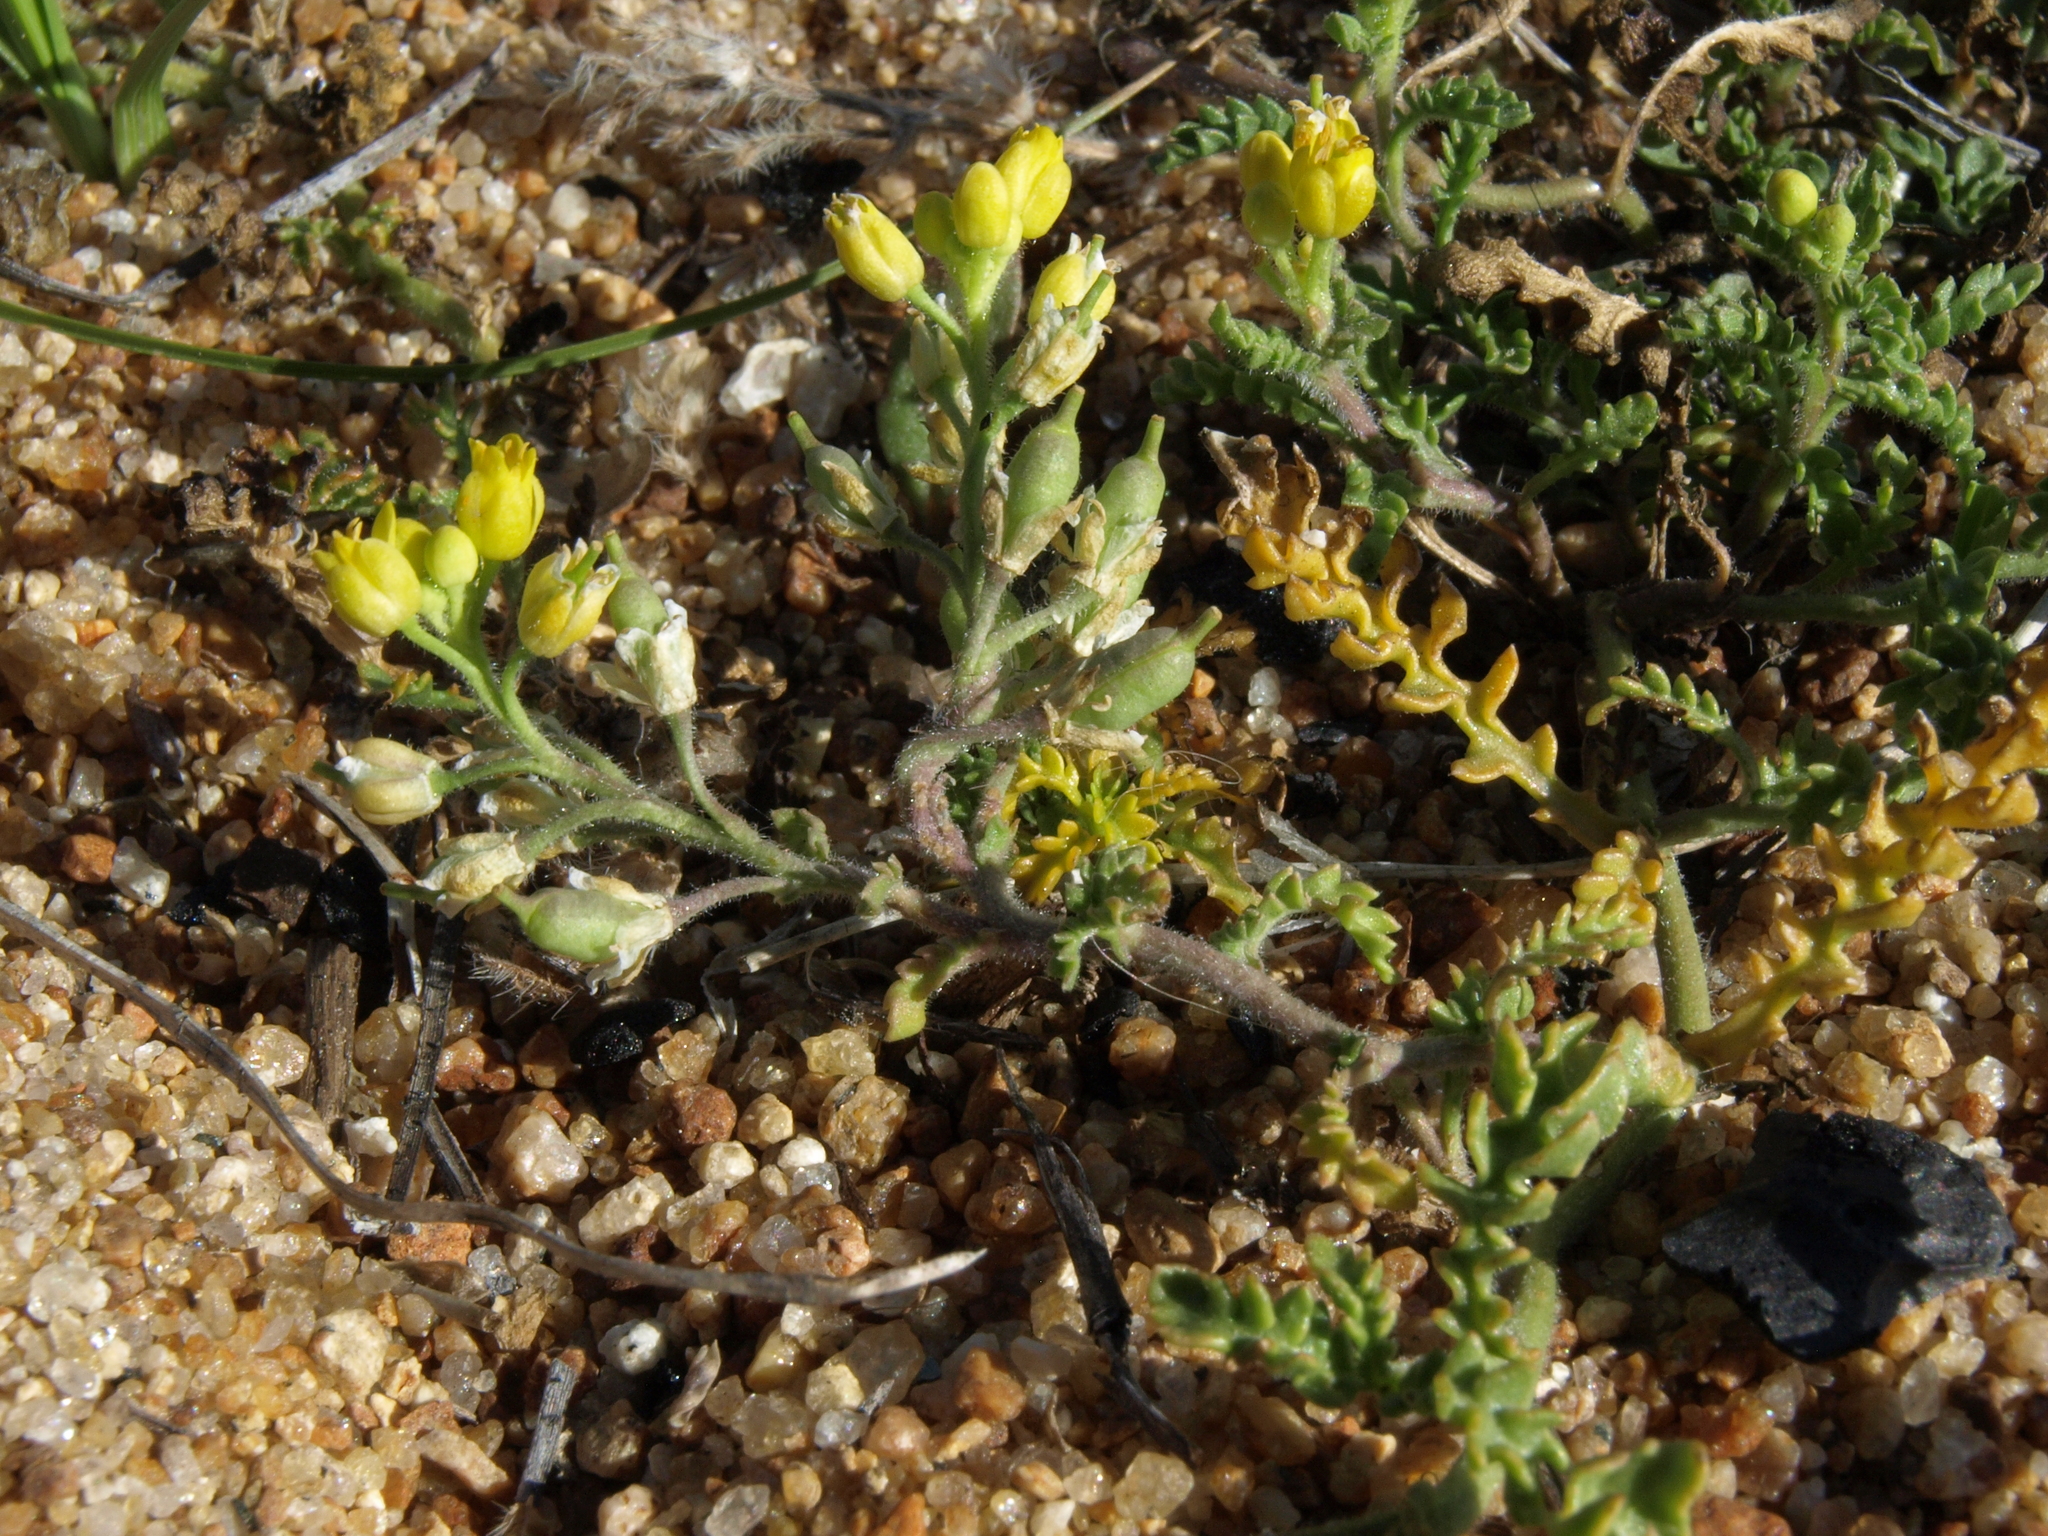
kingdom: Plantae
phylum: Tracheophyta
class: Magnoliopsida
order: Brassicales
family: Brassicaceae
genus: Rorippa
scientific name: Rorippa subumbellata
